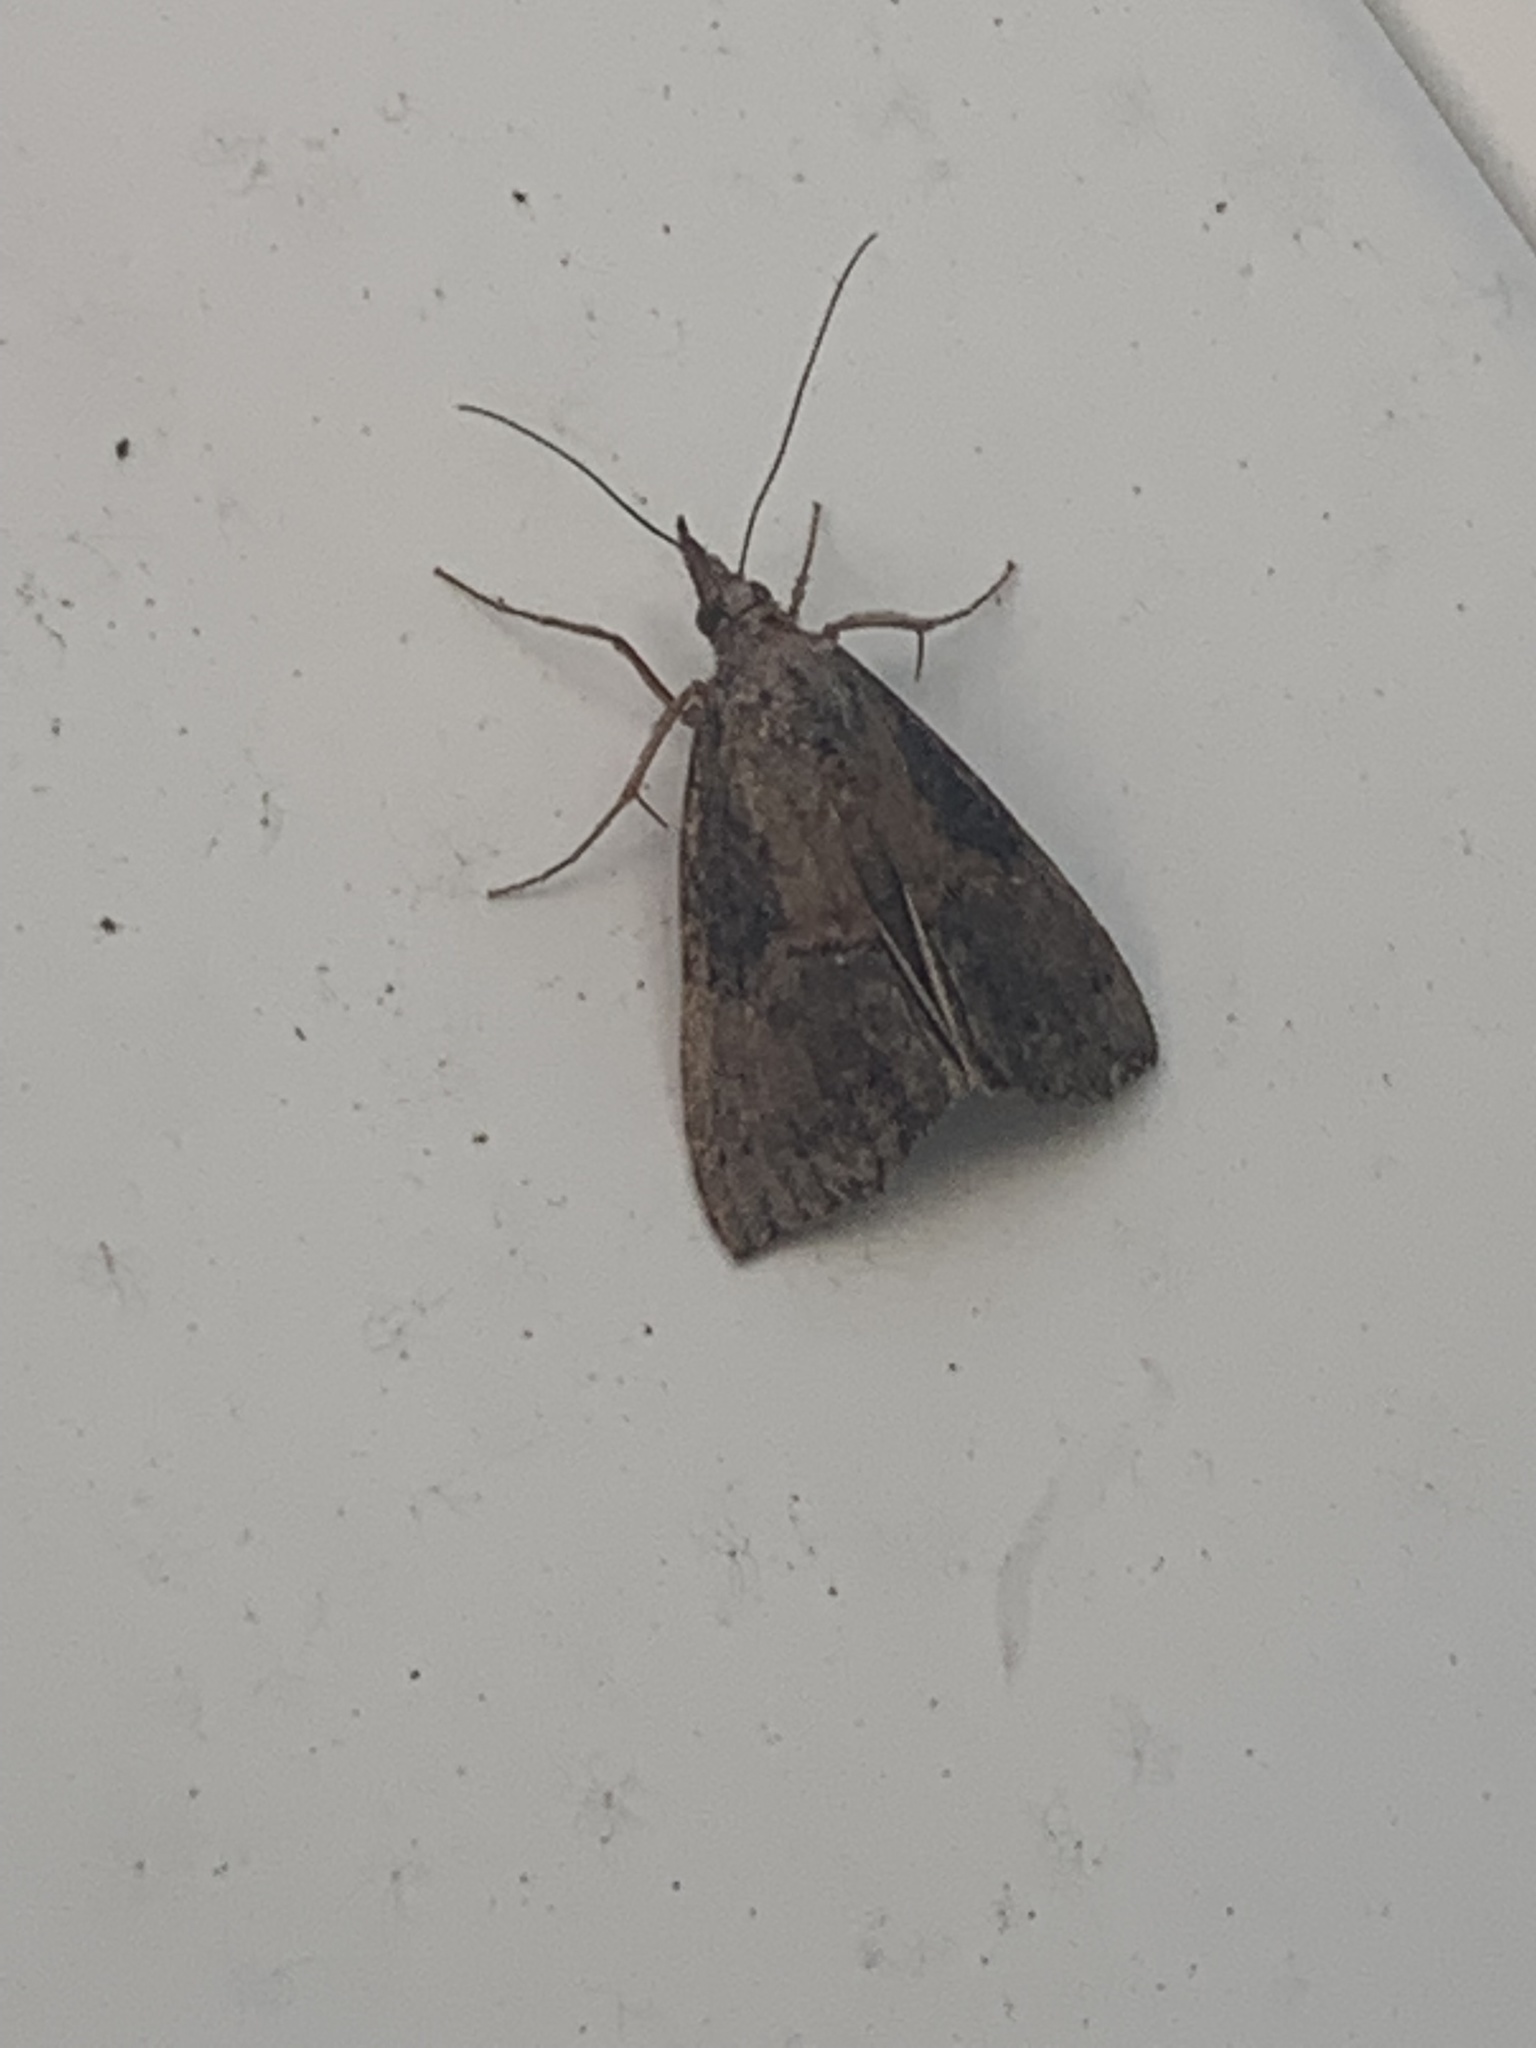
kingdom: Animalia
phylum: Arthropoda
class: Insecta
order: Lepidoptera
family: Erebidae
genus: Hypena
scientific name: Hypena scabra
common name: Green cloverworm
